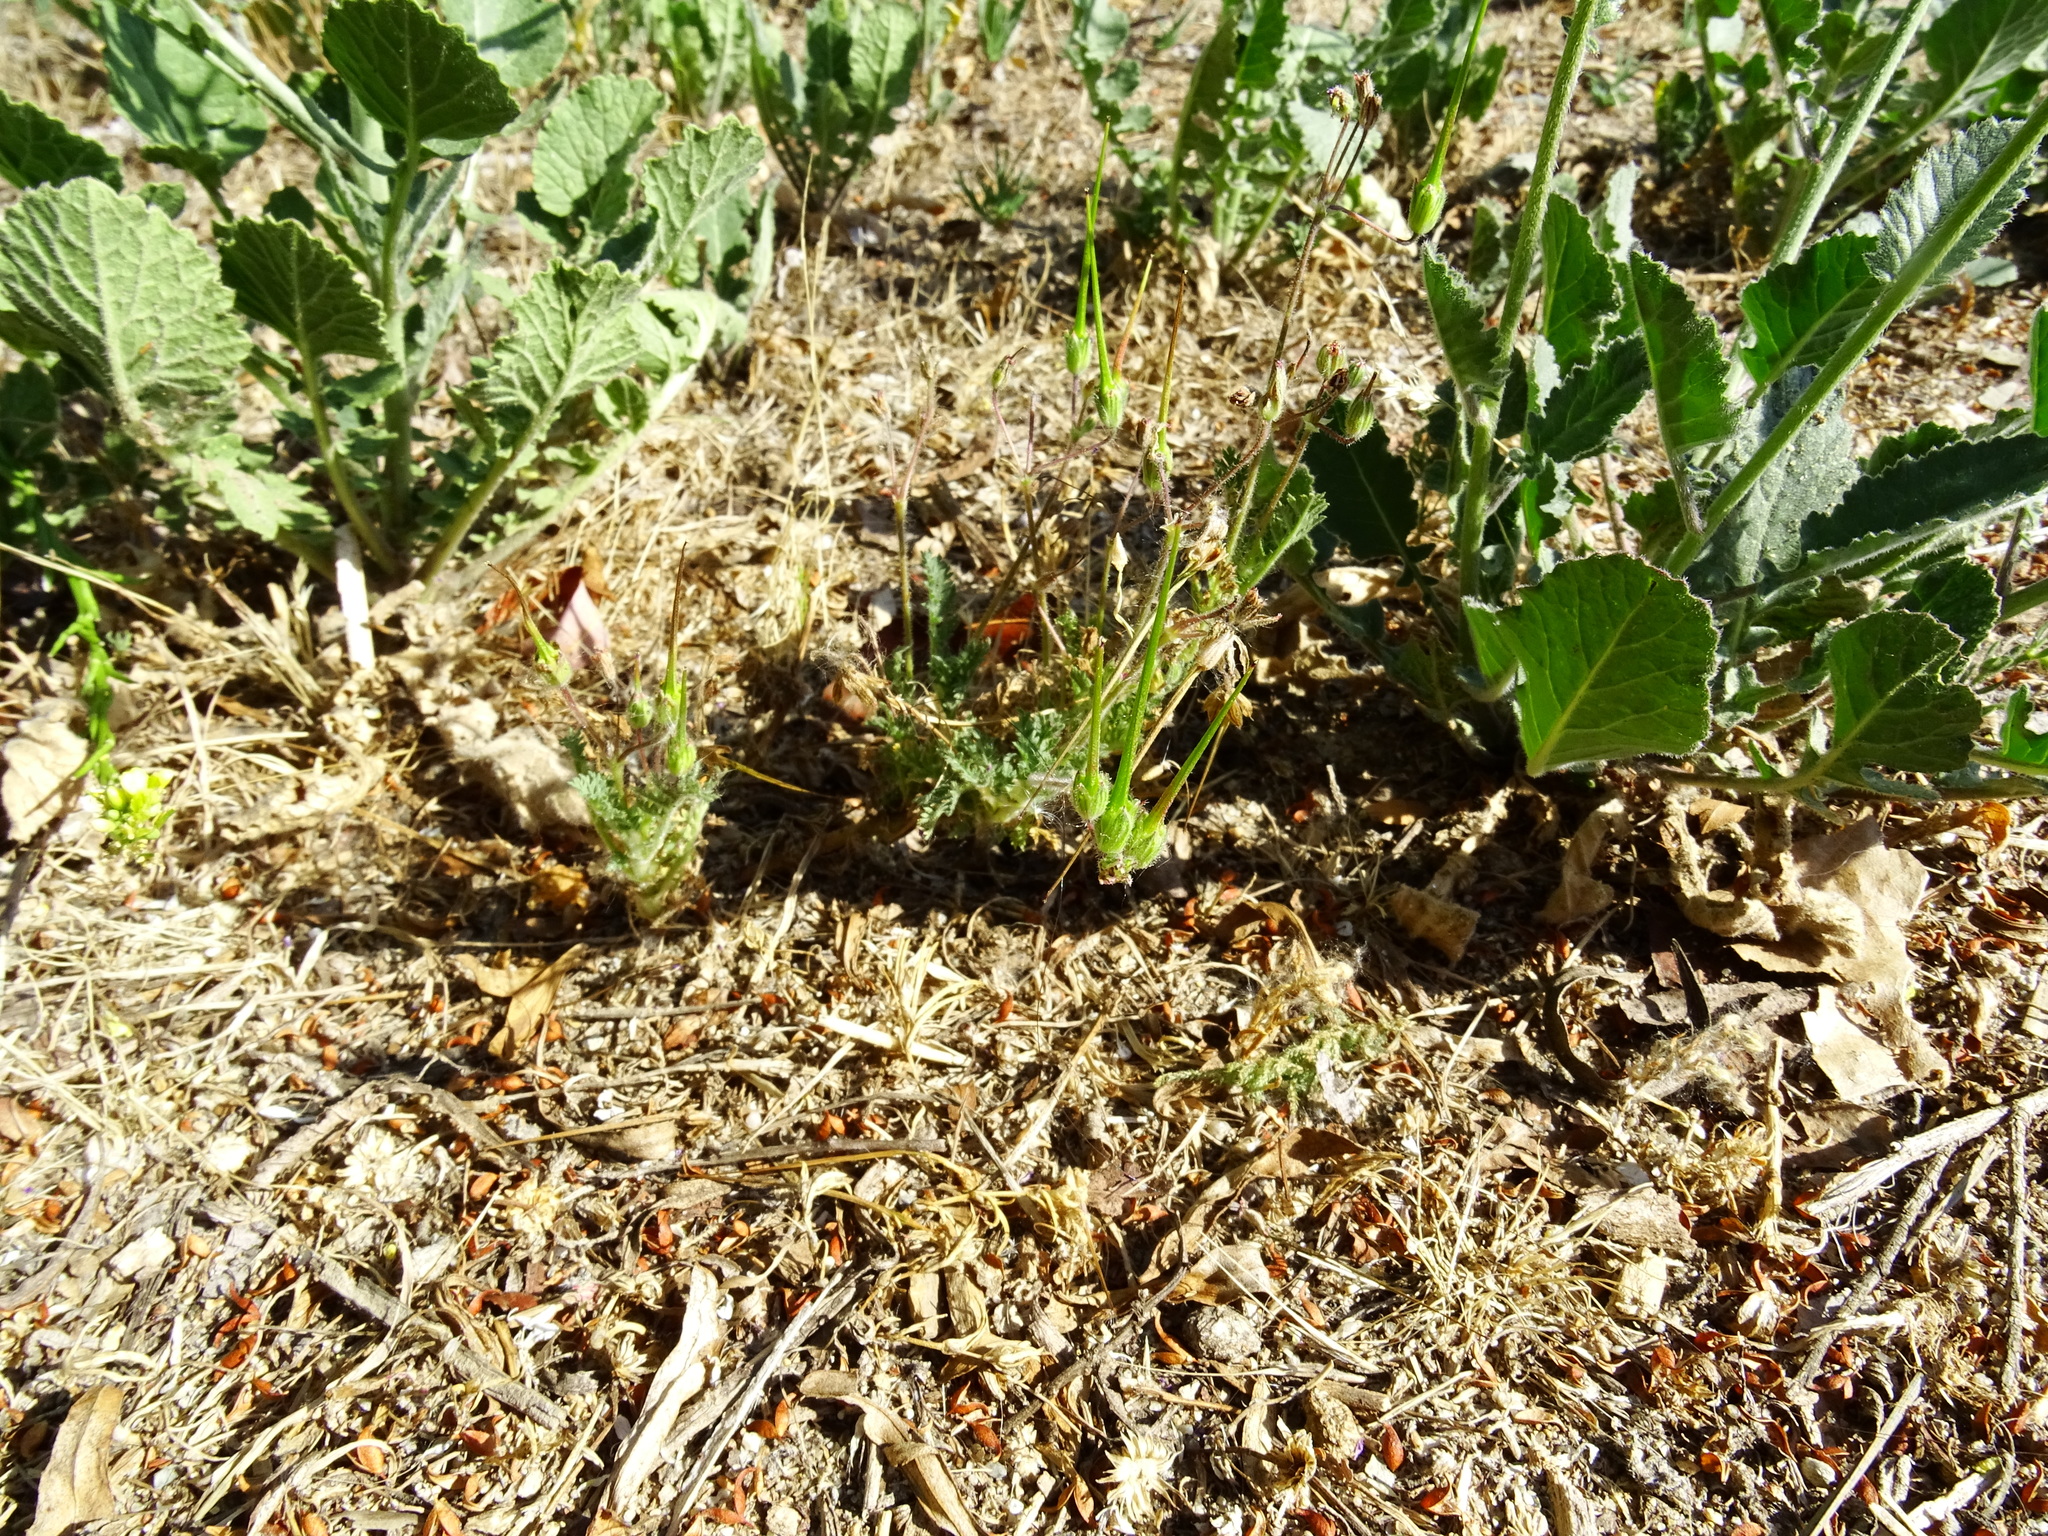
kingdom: Plantae
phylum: Tracheophyta
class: Magnoliopsida
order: Geraniales
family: Geraniaceae
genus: Erodium
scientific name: Erodium cicutarium
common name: Common stork's-bill
